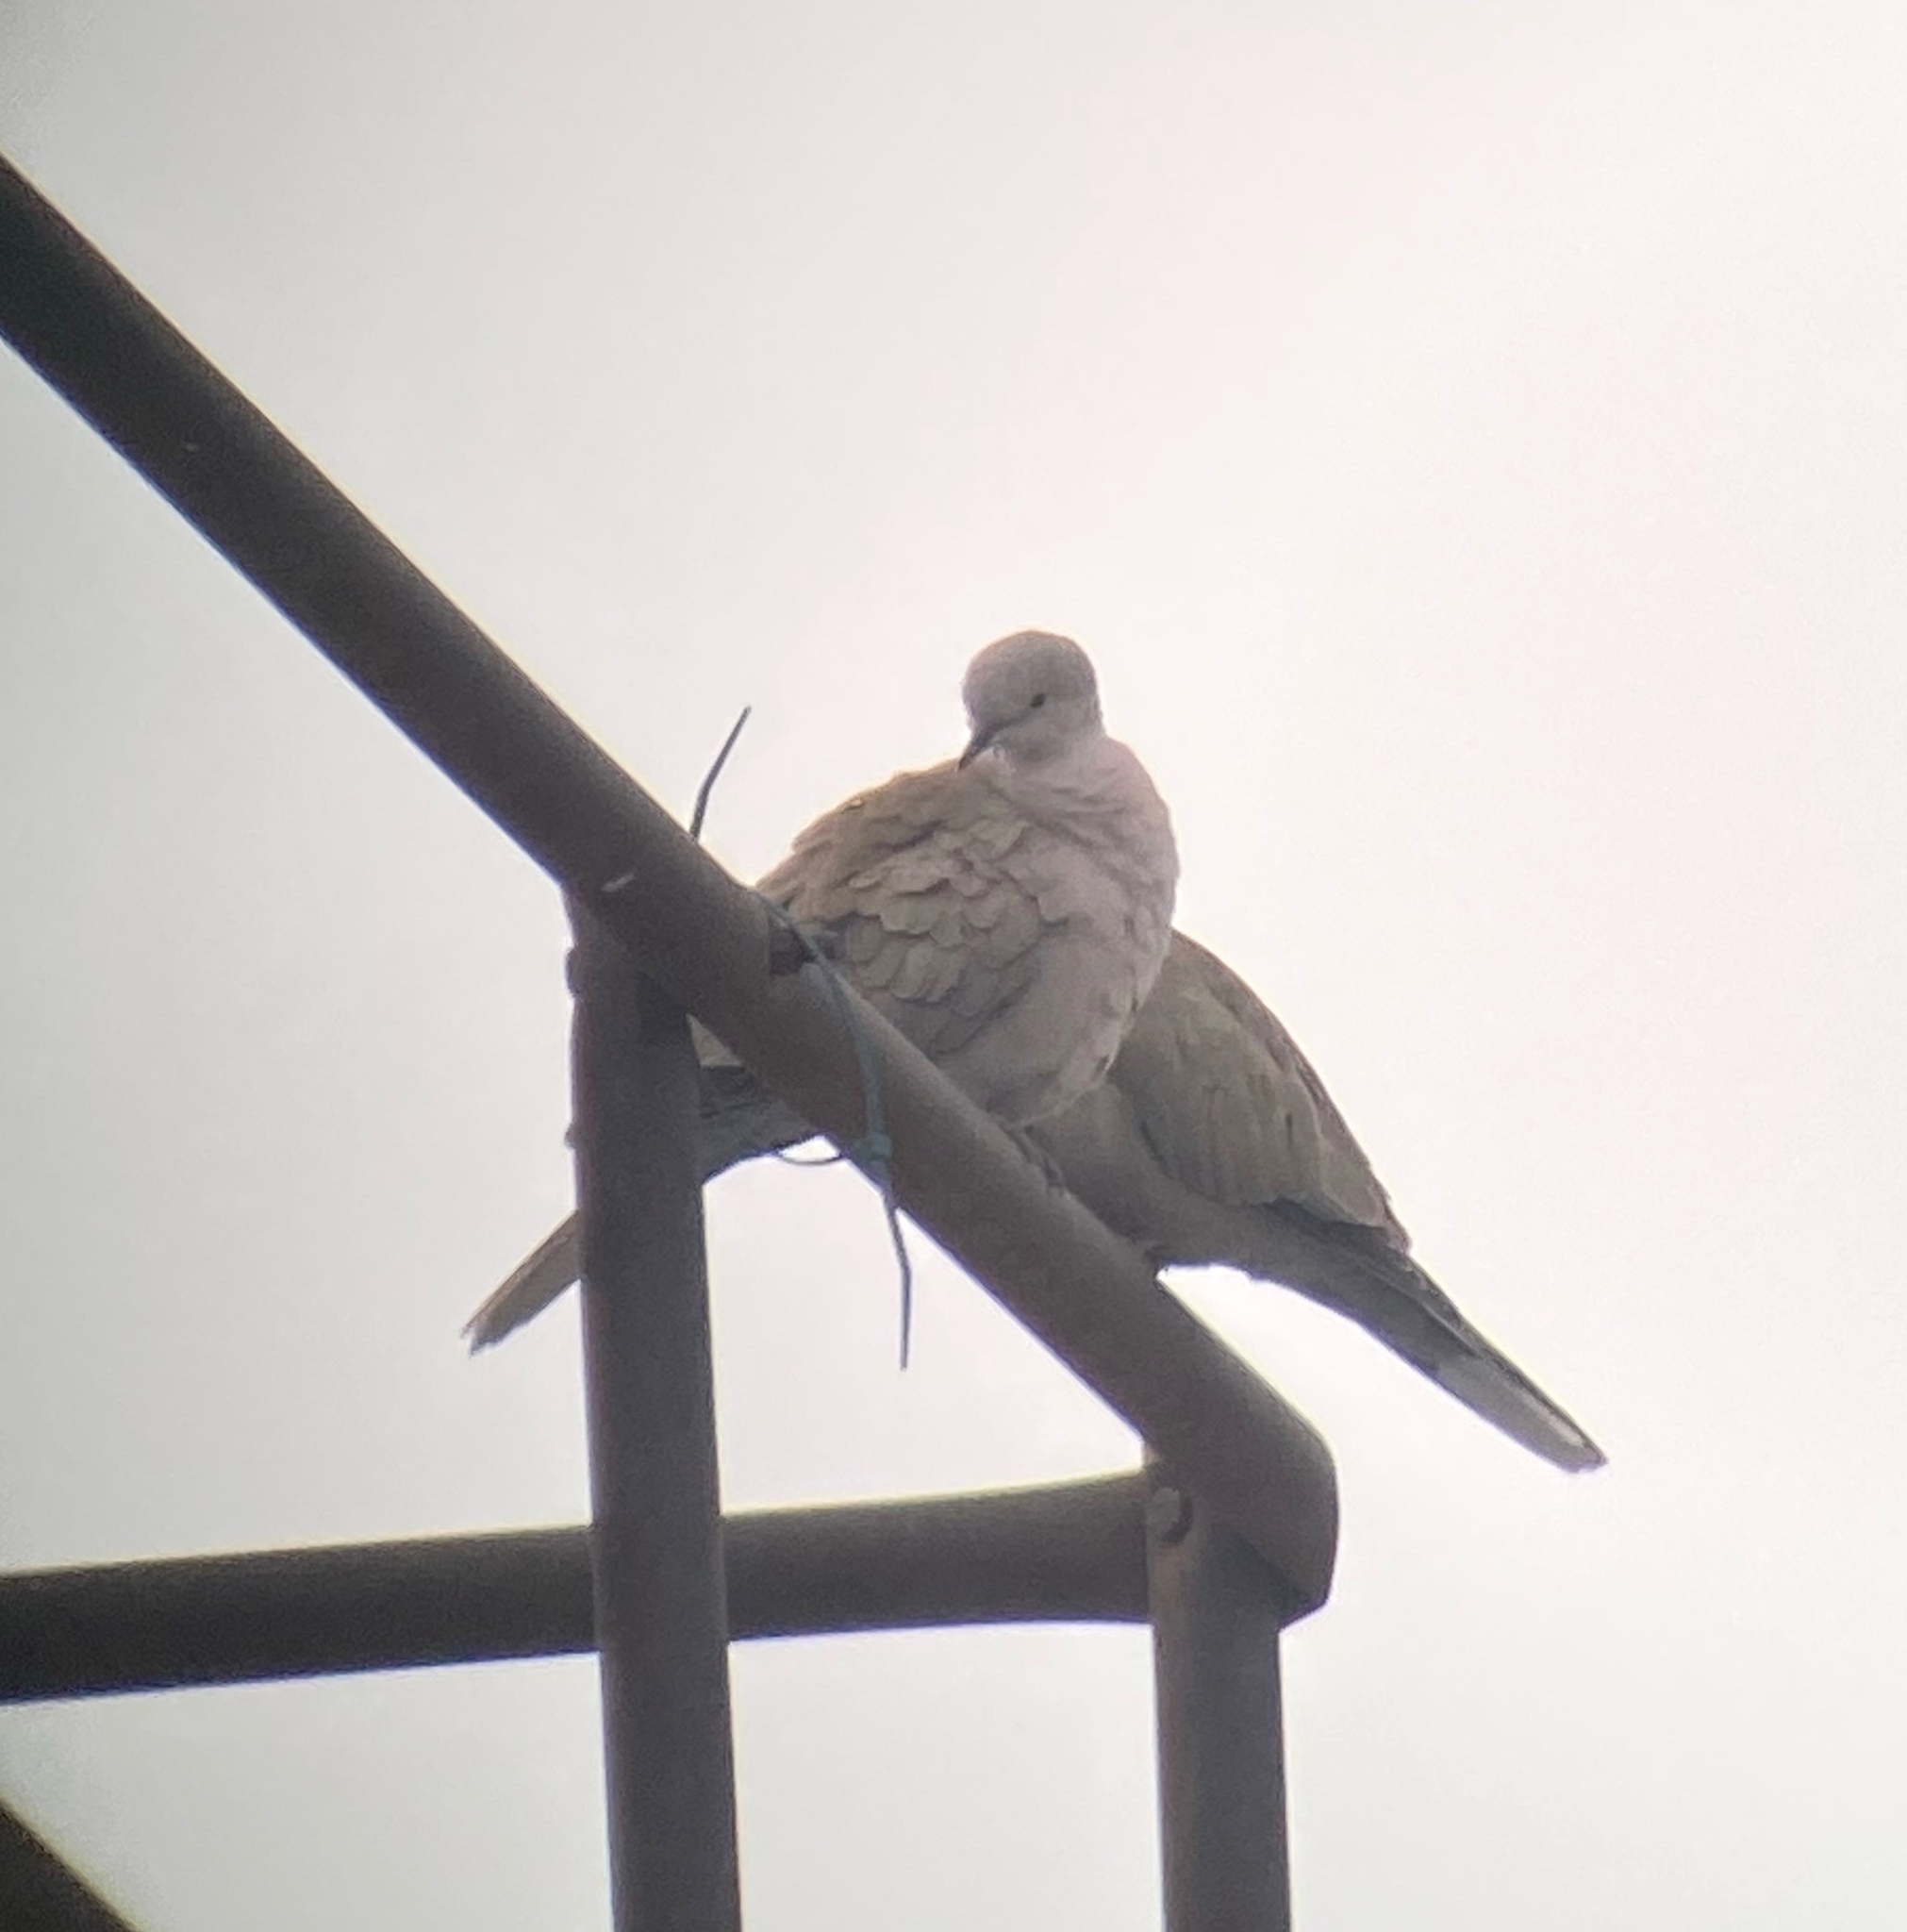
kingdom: Animalia
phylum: Chordata
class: Aves
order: Columbiformes
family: Columbidae
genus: Streptopelia
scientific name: Streptopelia decaocto
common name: Eurasian collared dove
